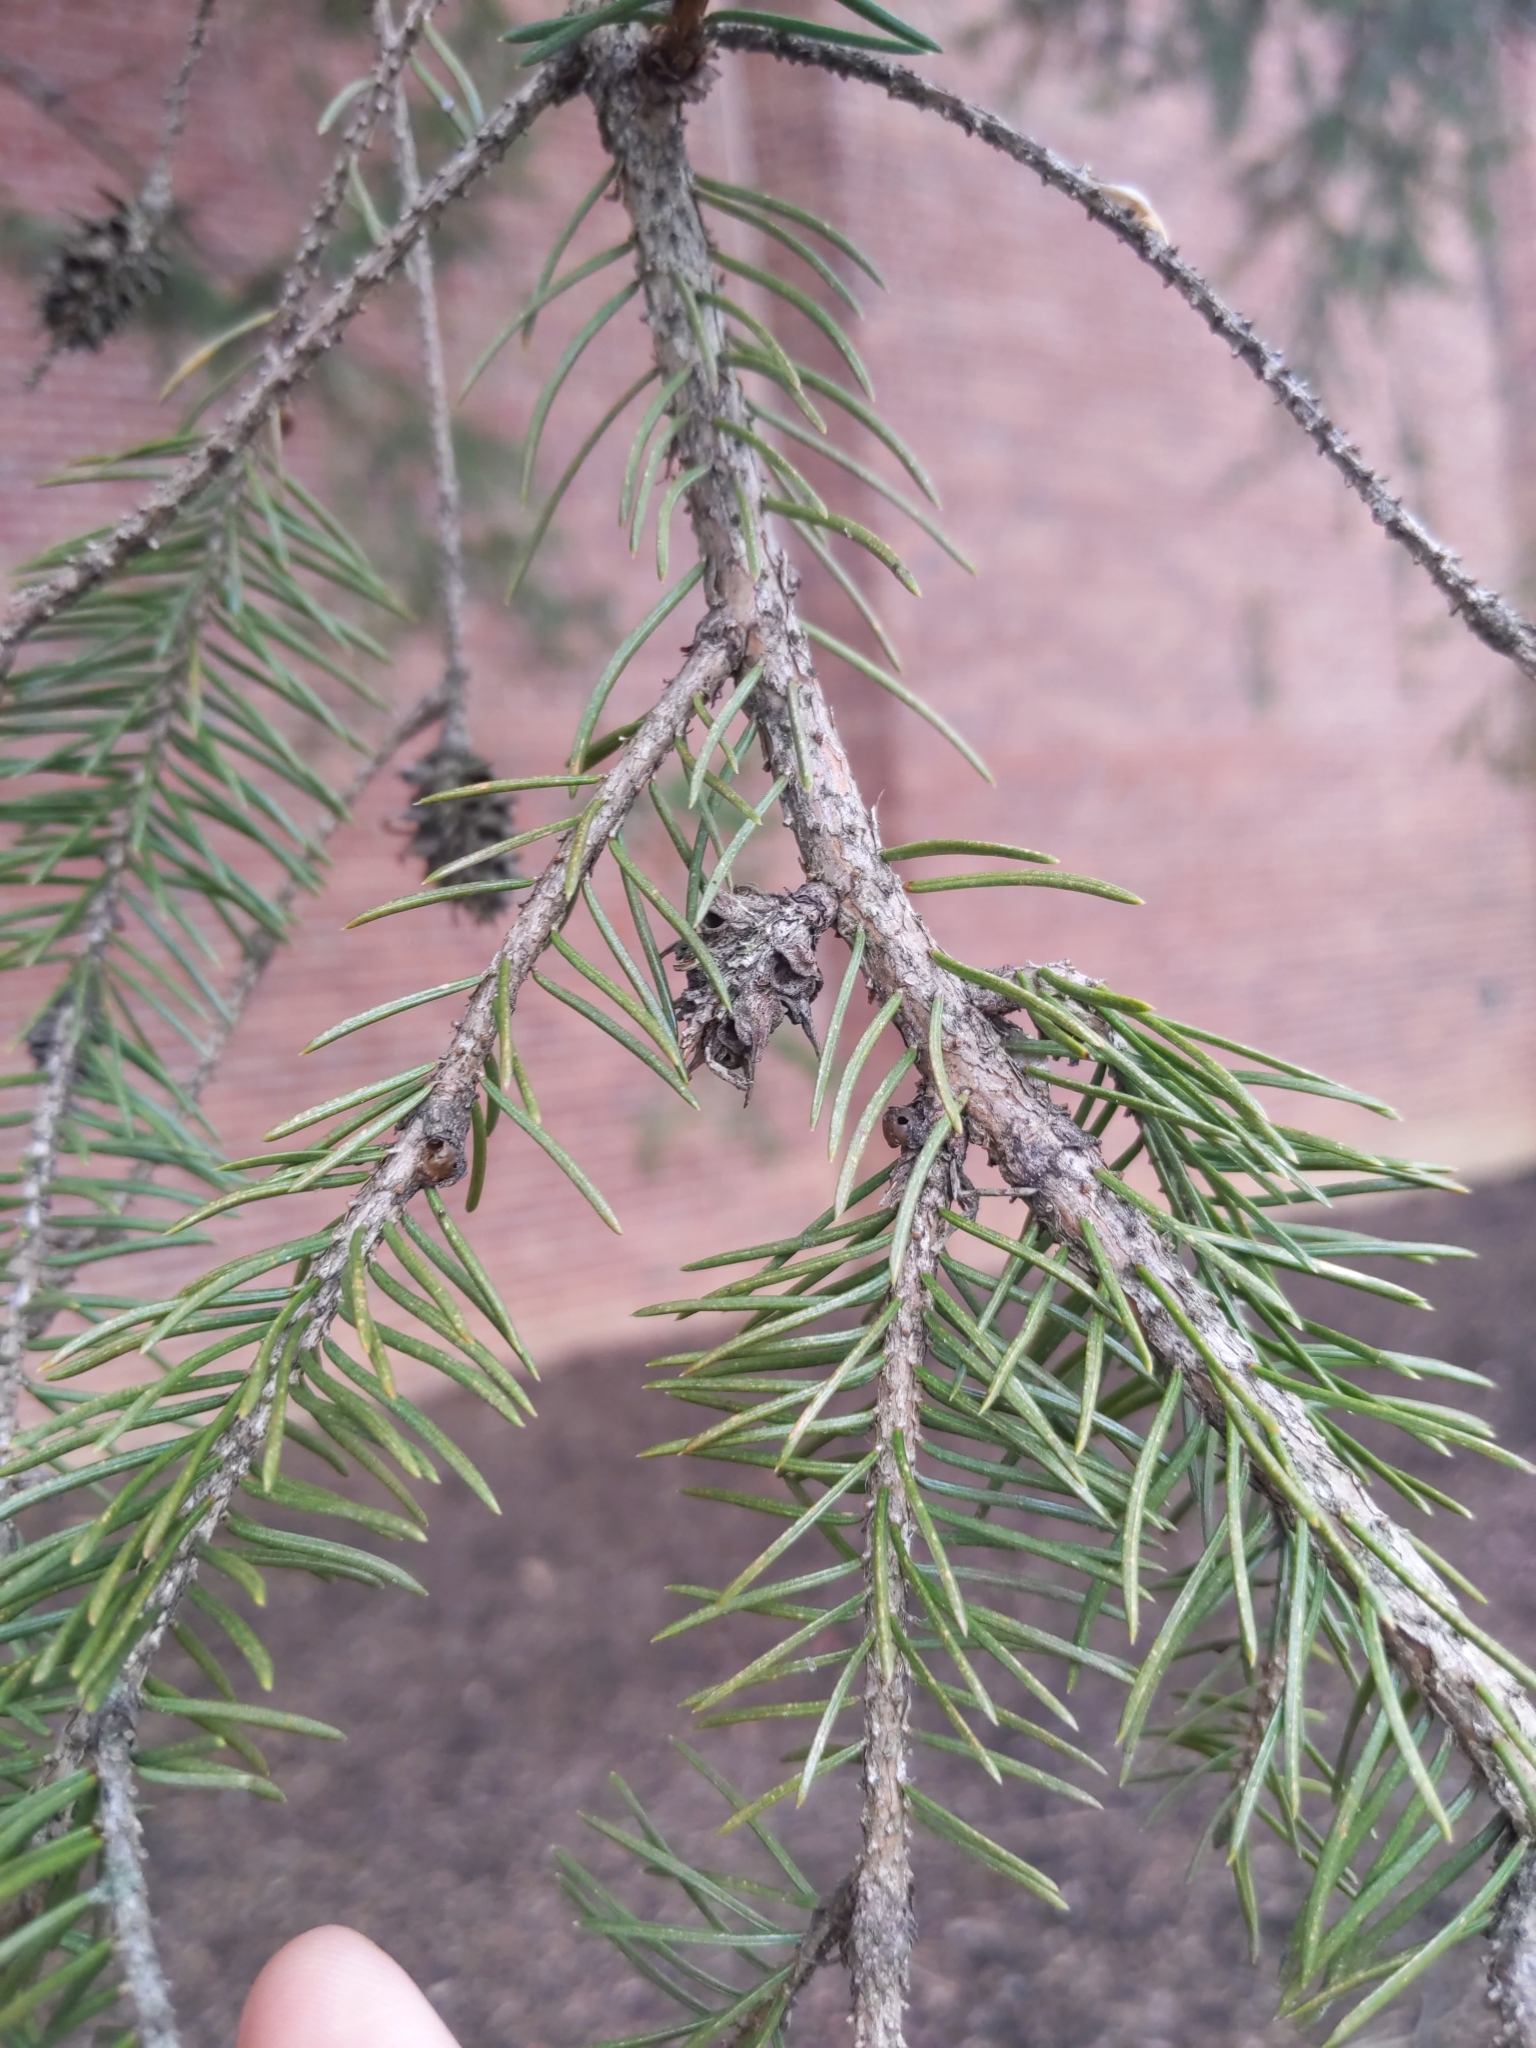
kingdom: Animalia
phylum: Arthropoda
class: Insecta
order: Hemiptera
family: Adelgidae
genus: Adelges
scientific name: Adelges abietis
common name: Eastern spruce gall adelgid
